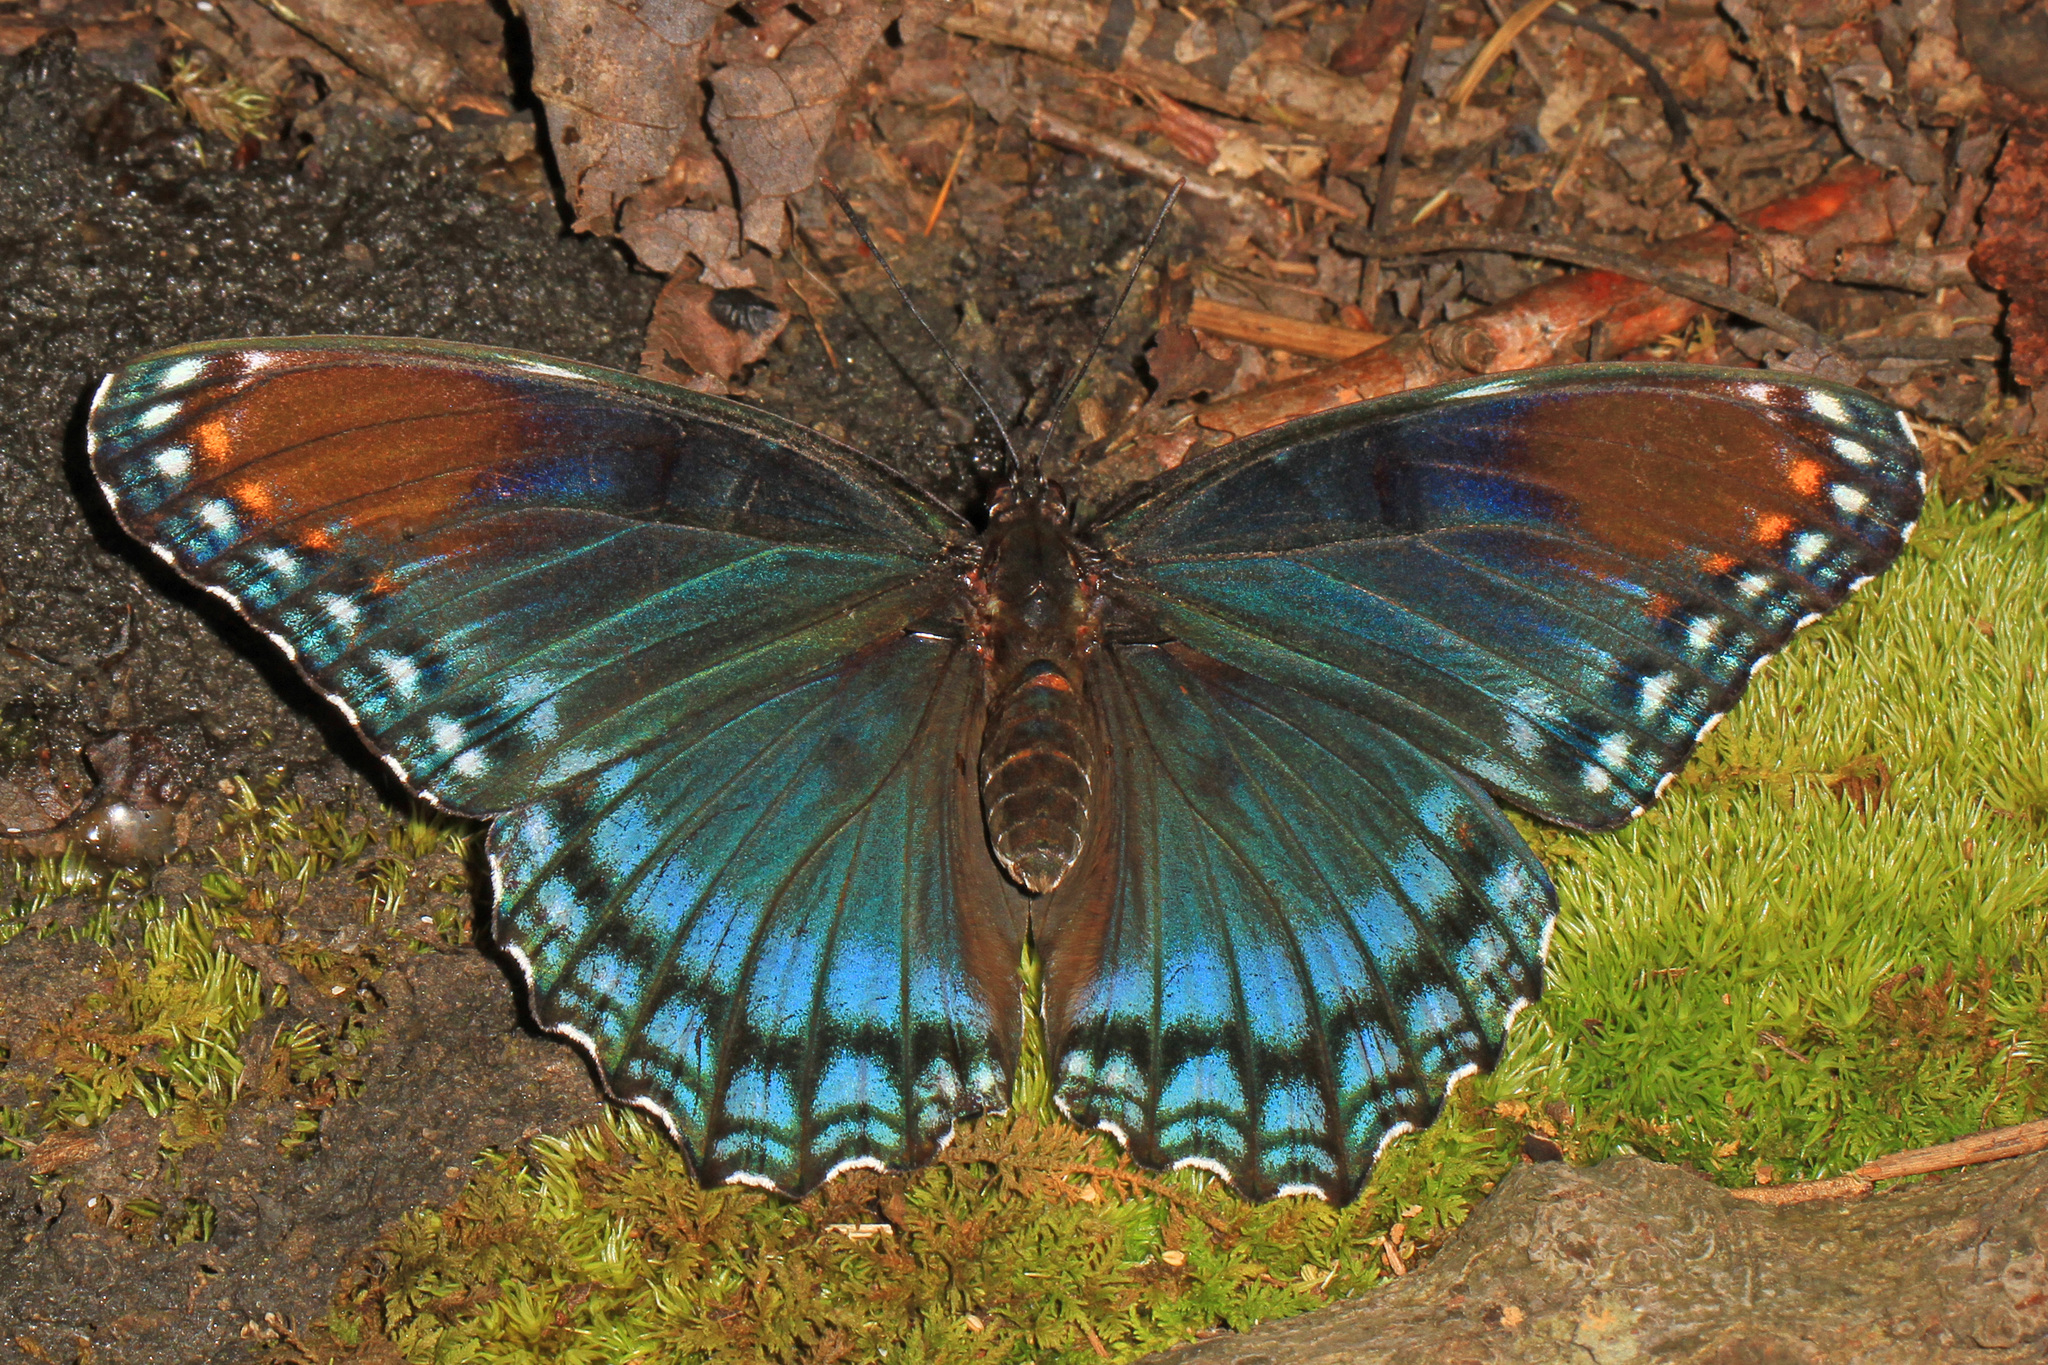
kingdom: Animalia
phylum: Arthropoda
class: Insecta
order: Lepidoptera
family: Nymphalidae
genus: Limenitis
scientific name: Limenitis astyanax
